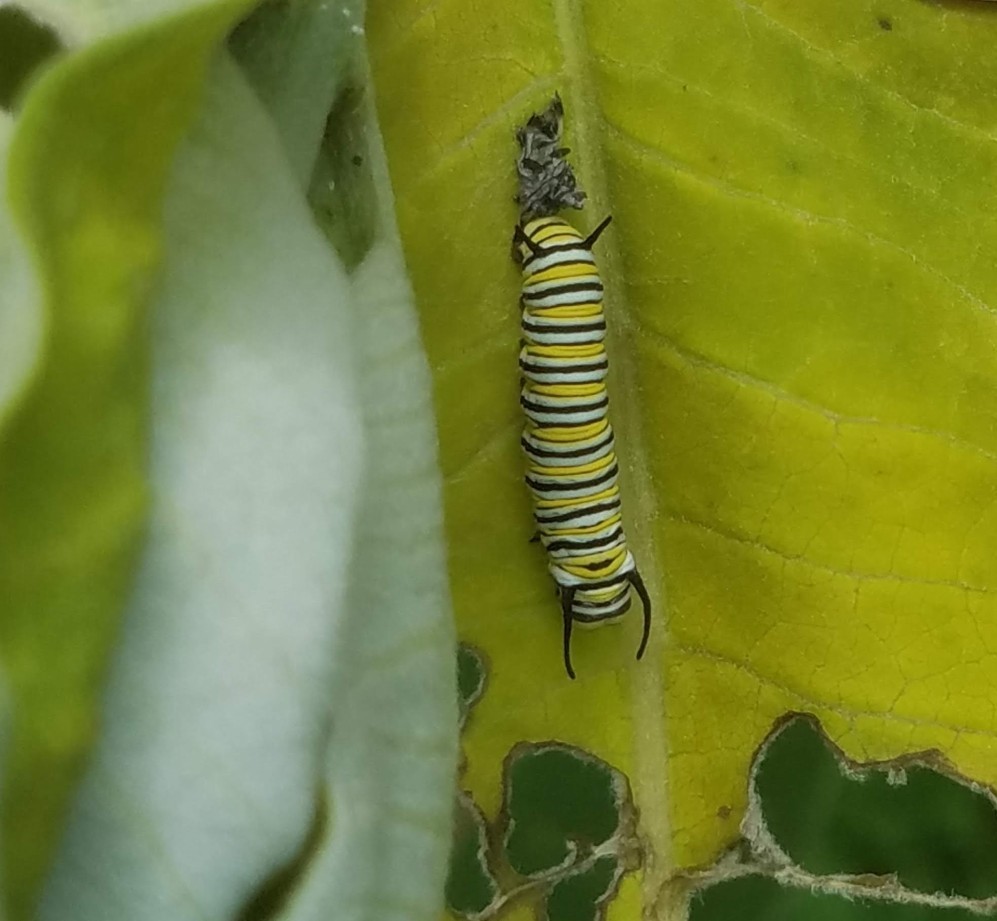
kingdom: Animalia
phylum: Arthropoda
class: Insecta
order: Lepidoptera
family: Nymphalidae
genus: Danaus
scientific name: Danaus plexippus
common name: Monarch
